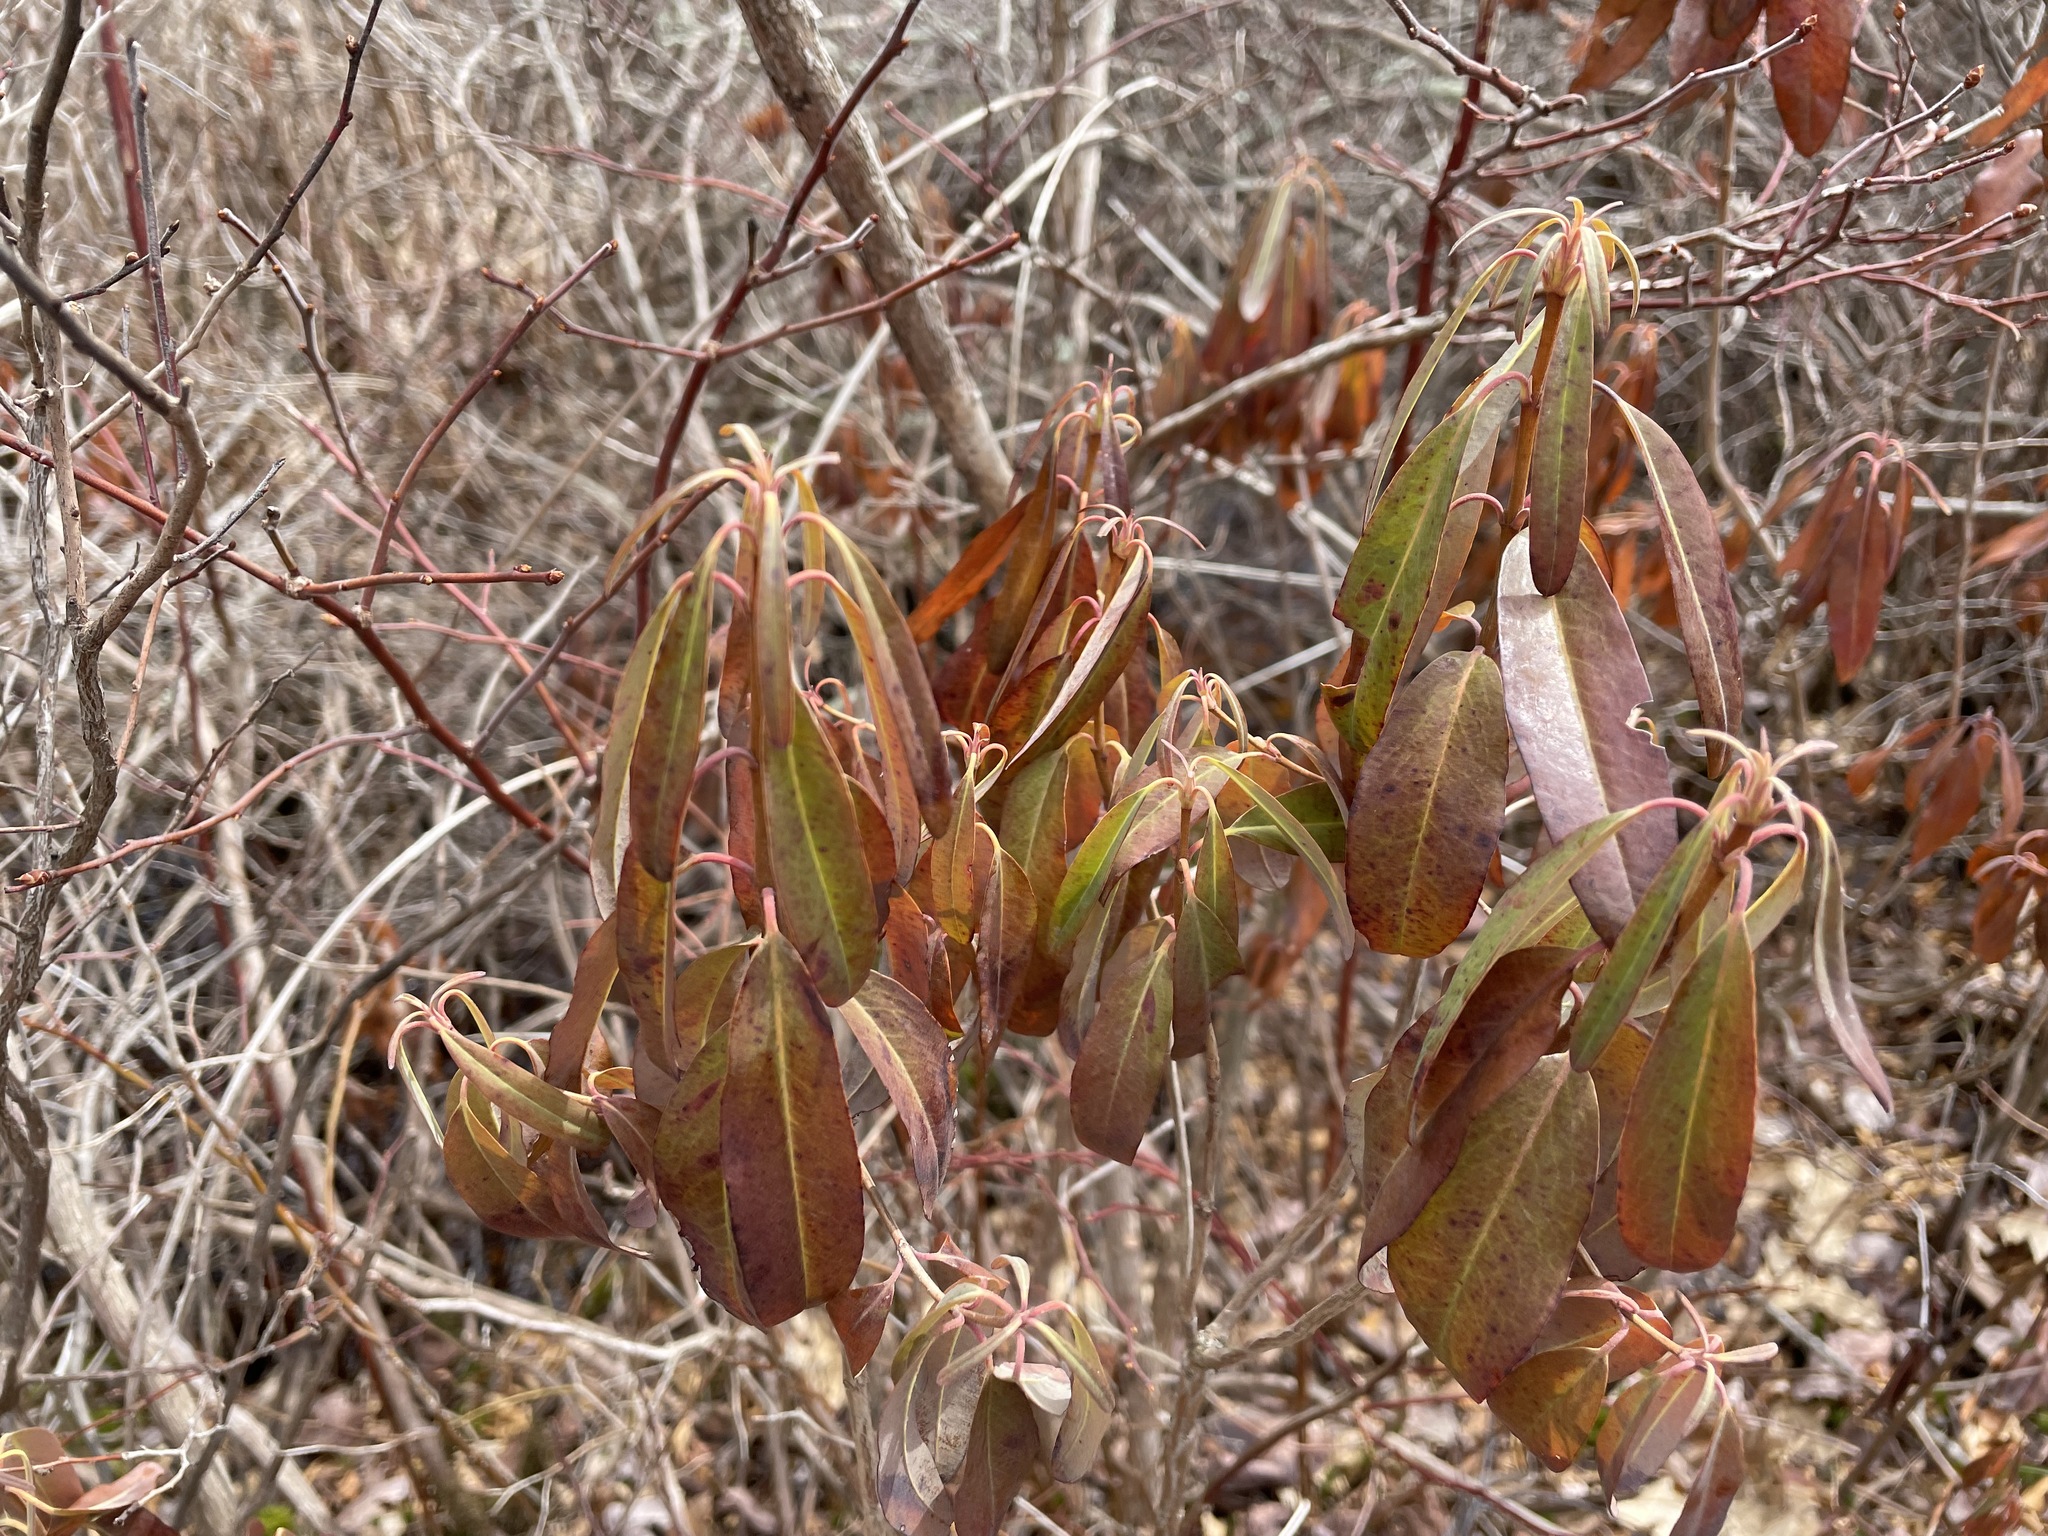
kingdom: Plantae
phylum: Tracheophyta
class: Magnoliopsida
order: Ericales
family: Ericaceae
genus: Kalmia
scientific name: Kalmia angustifolia
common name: Sheep-laurel
